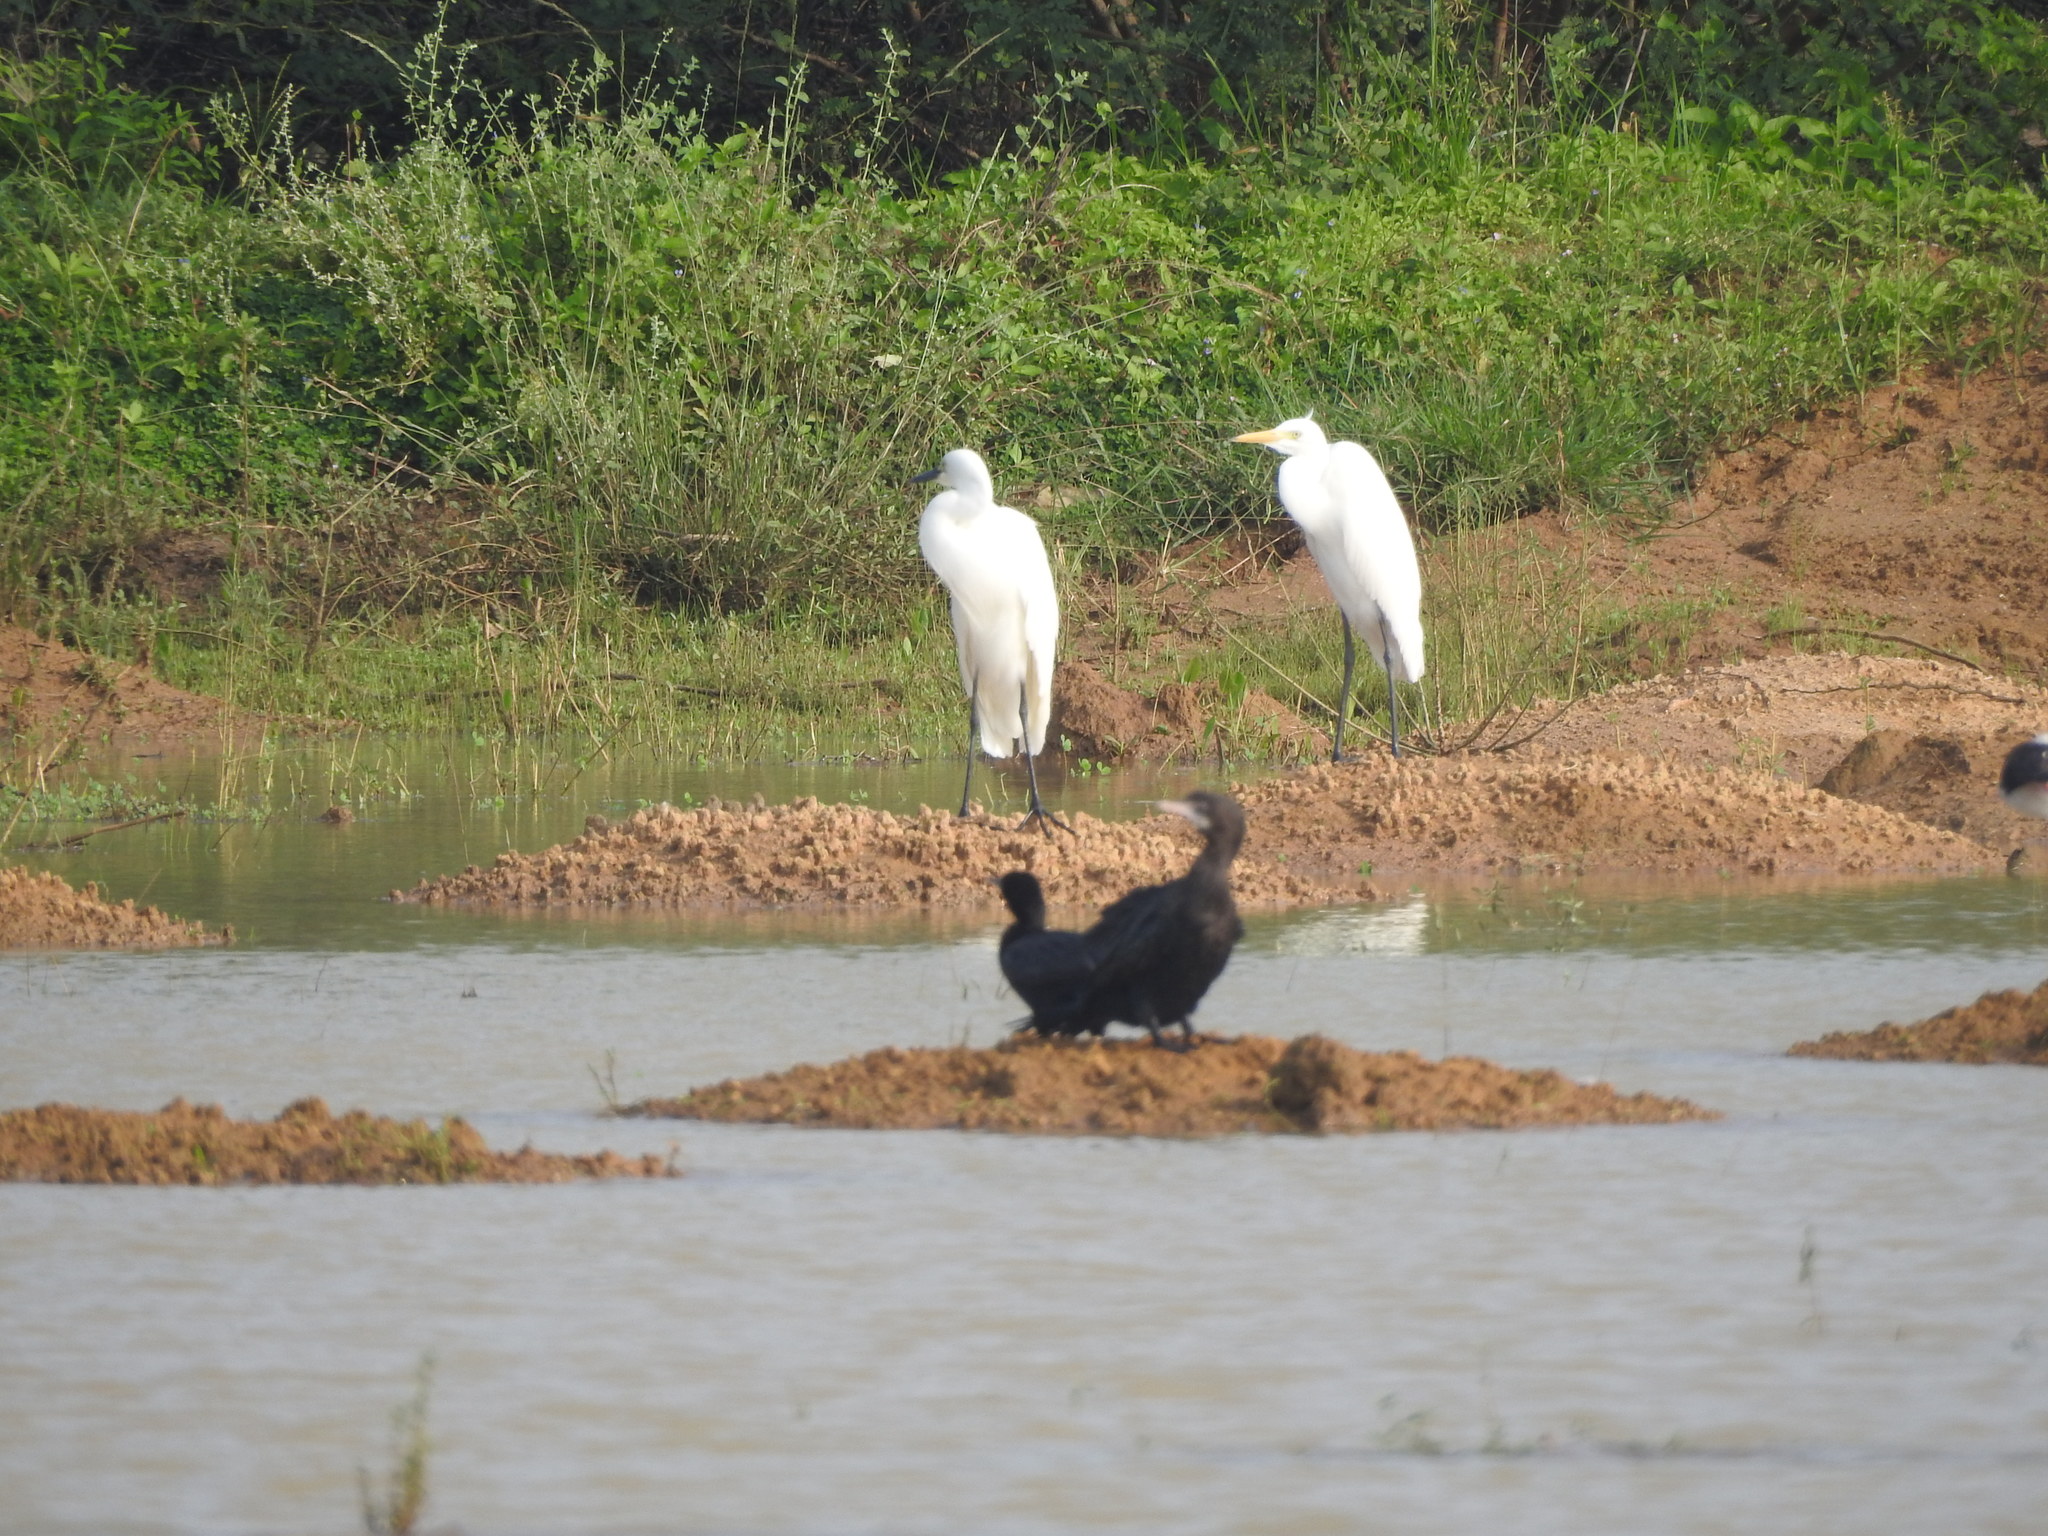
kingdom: Animalia
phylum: Chordata
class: Aves
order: Suliformes
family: Phalacrocoracidae
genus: Microcarbo
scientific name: Microcarbo niger
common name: Little cormorant
